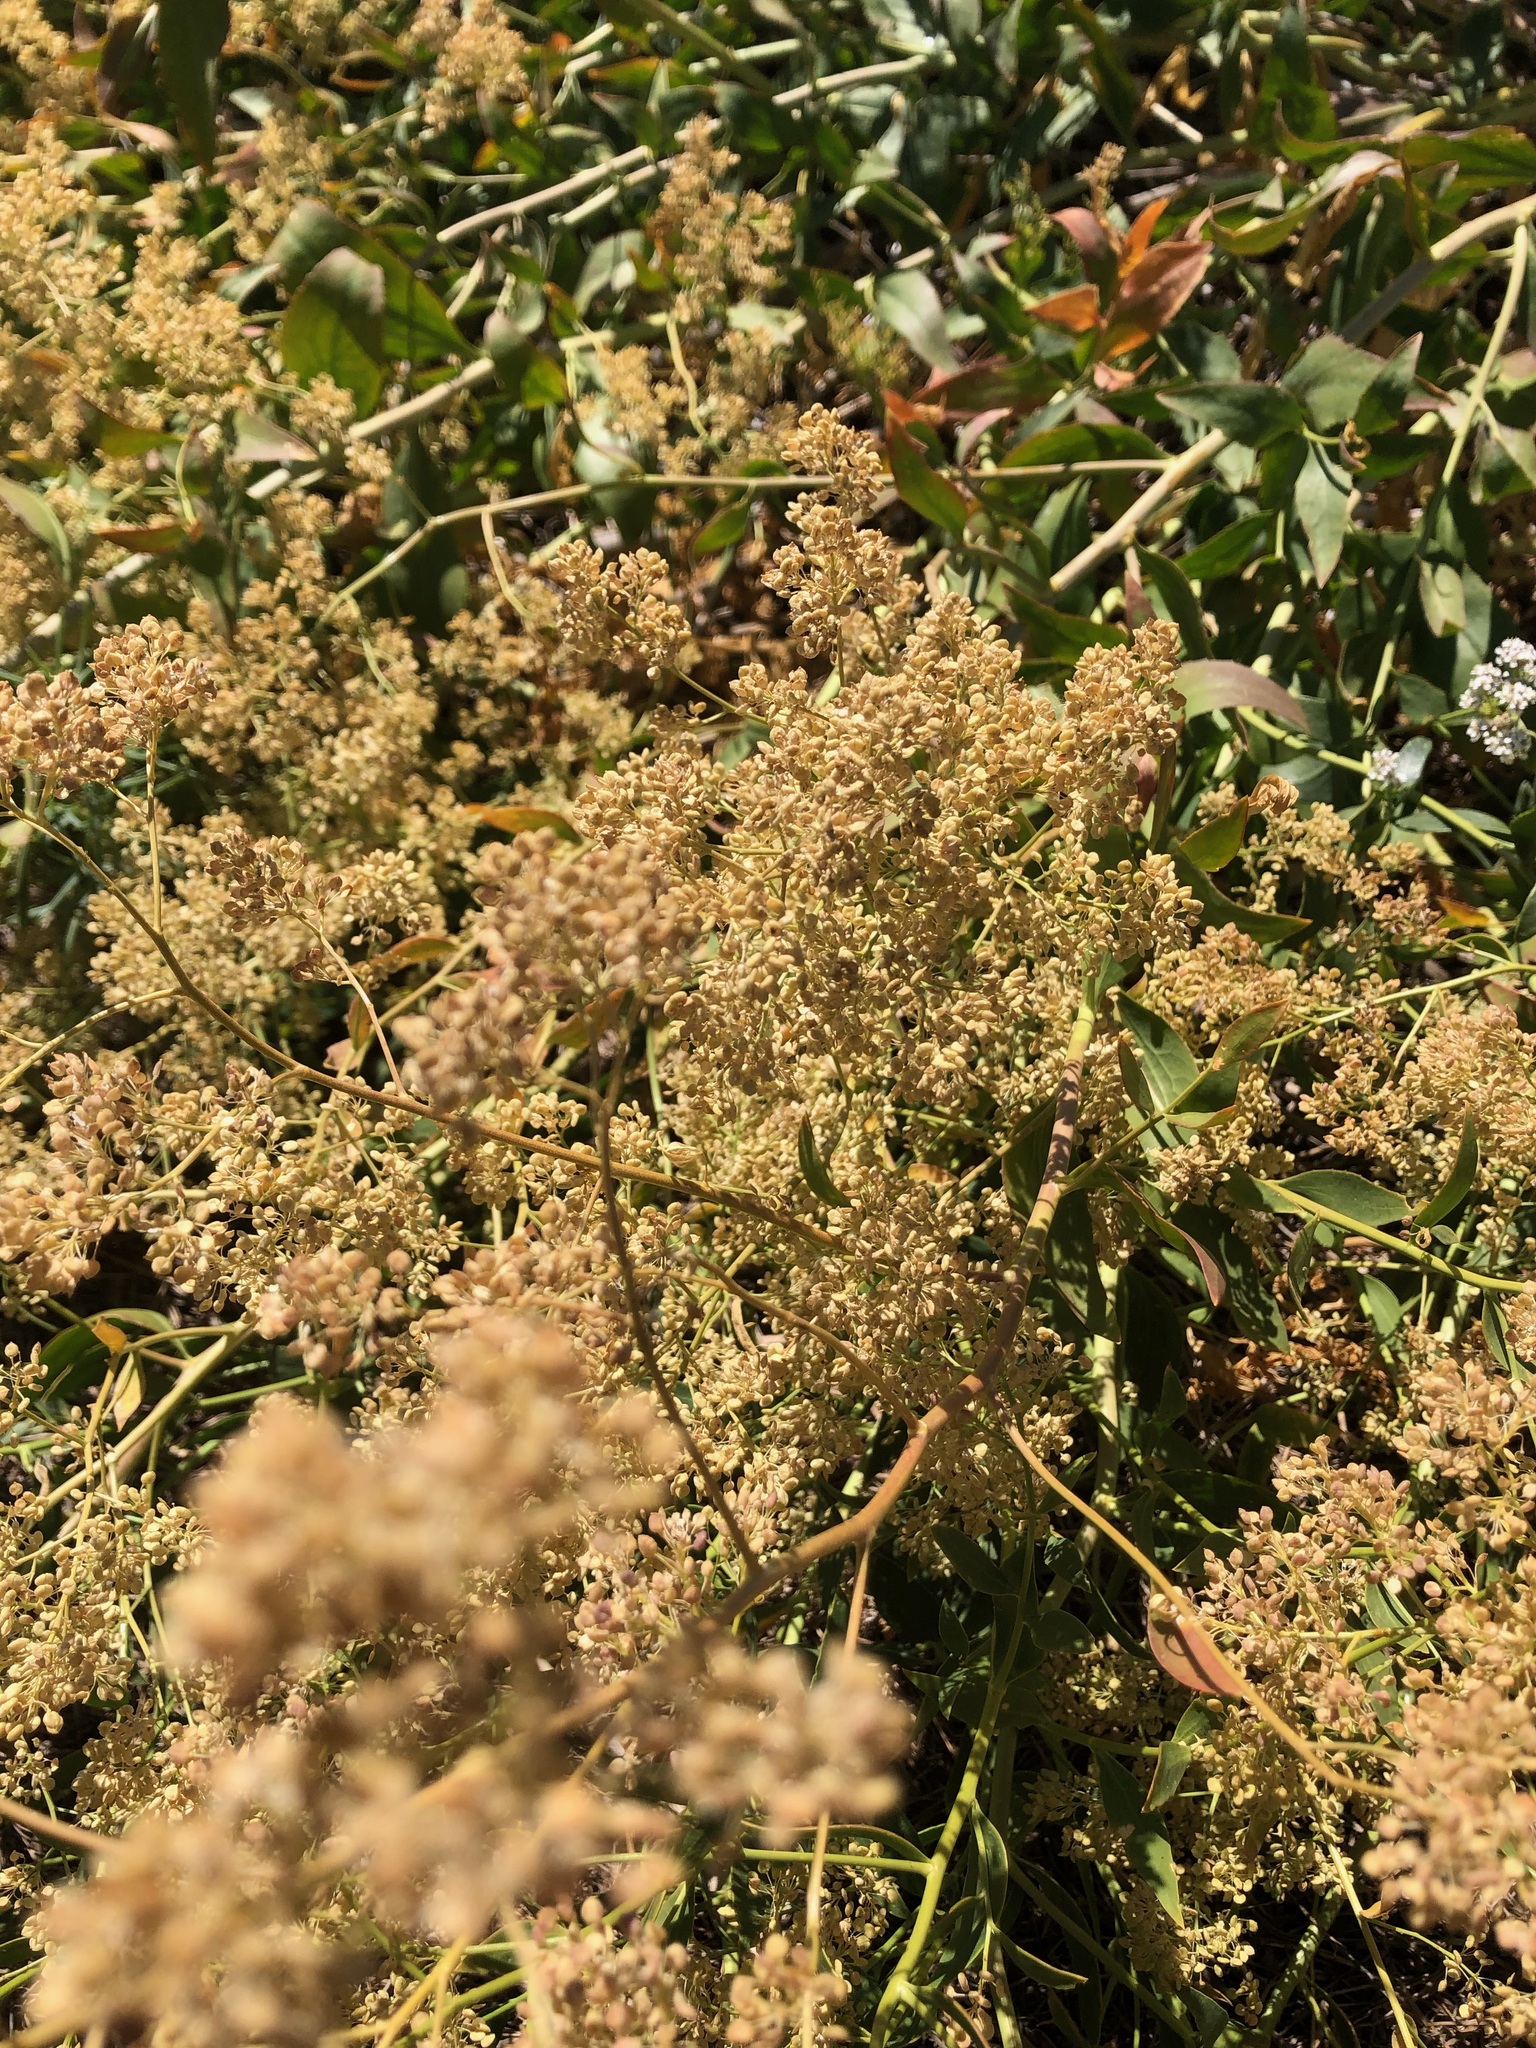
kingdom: Plantae
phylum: Tracheophyta
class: Magnoliopsida
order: Brassicales
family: Brassicaceae
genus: Lepidium
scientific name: Lepidium latifolium
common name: Dittander
